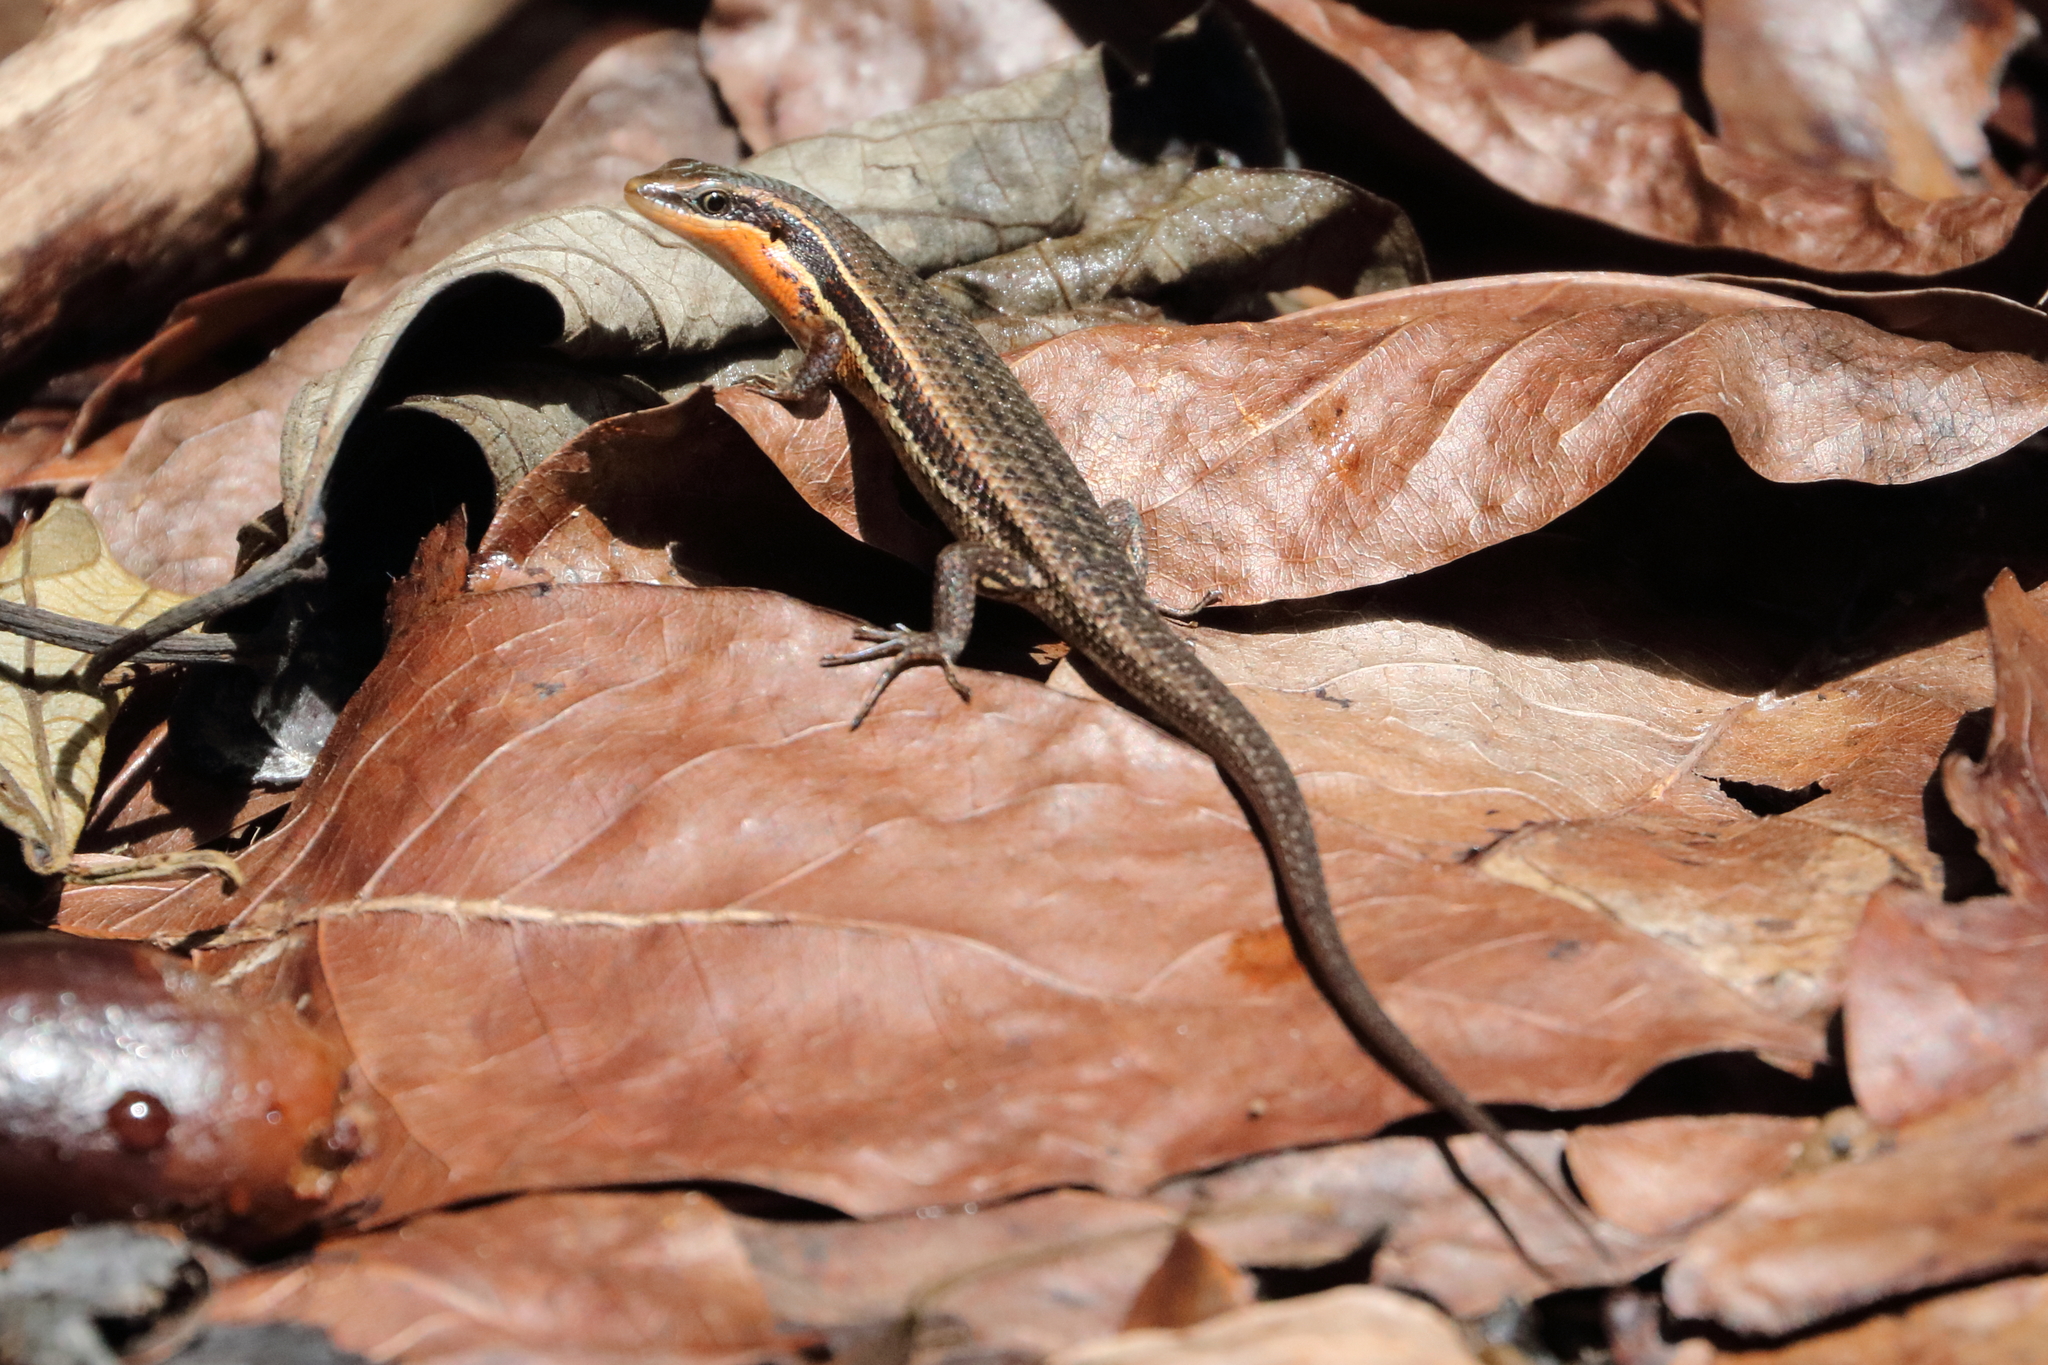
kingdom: Animalia
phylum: Chordata
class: Squamata
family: Scincidae
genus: Eutropis
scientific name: Eutropis sahulinghangganan
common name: Palawan sun skink
